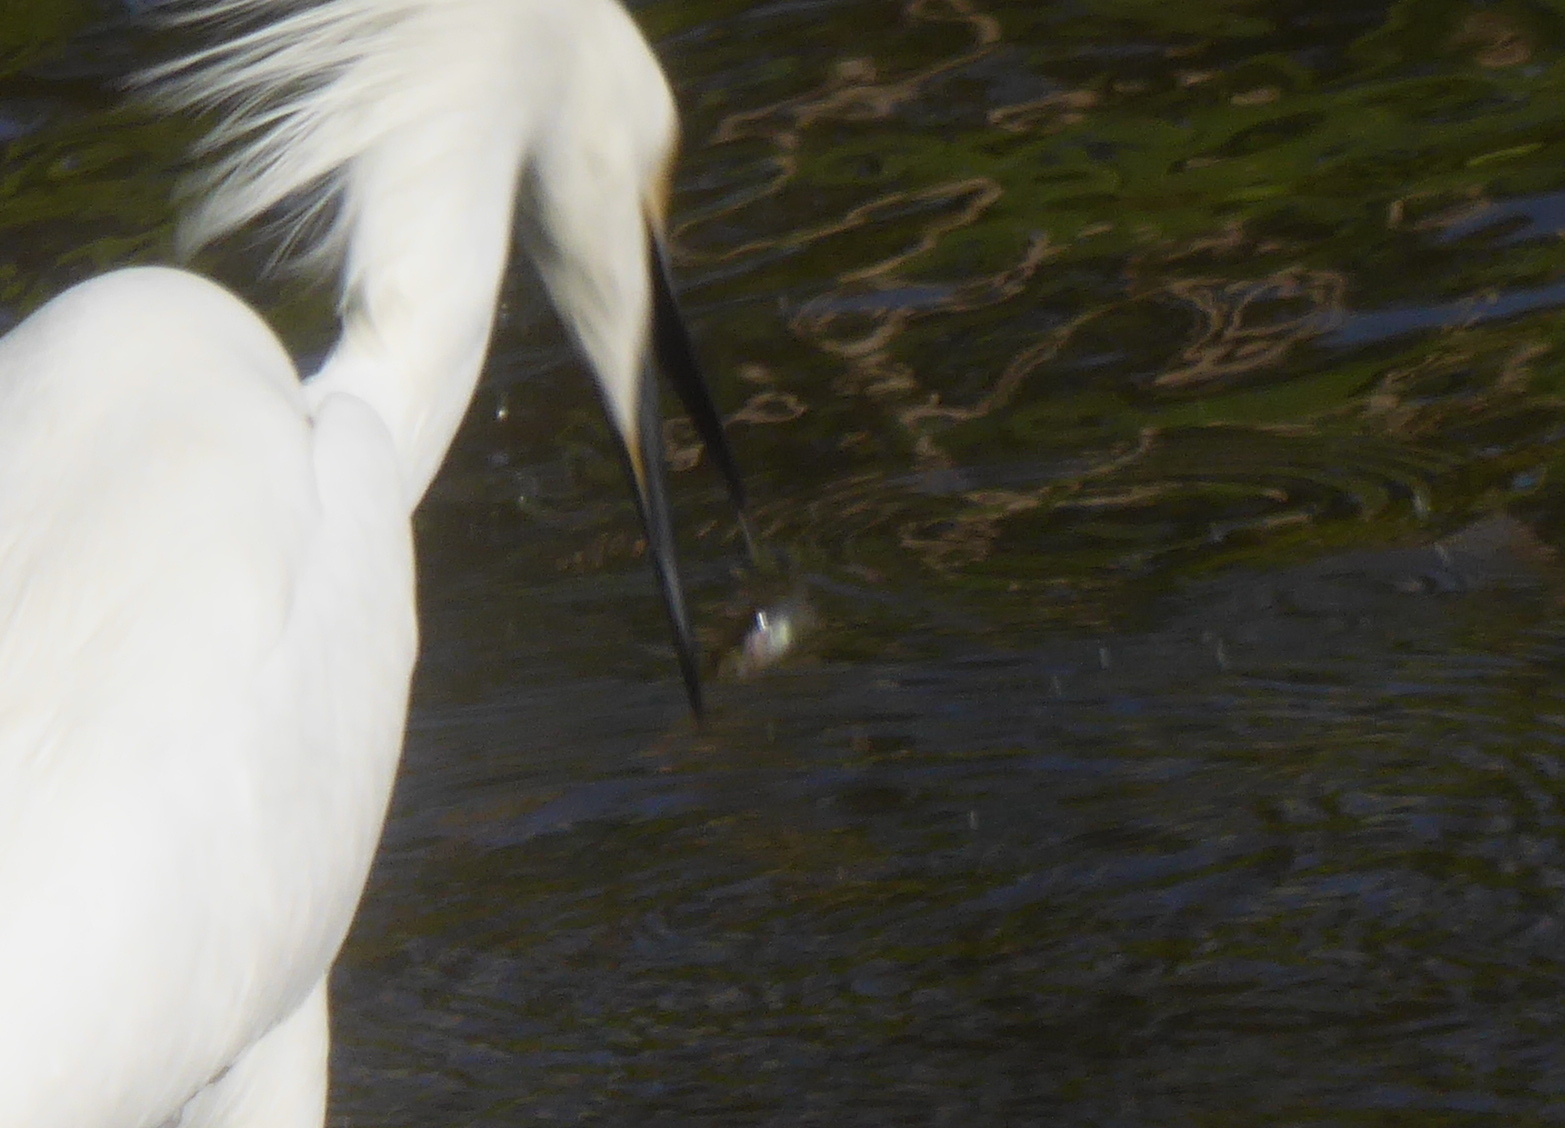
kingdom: Animalia
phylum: Chordata
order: Gasterosteiformes
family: Gasterosteidae
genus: Gasterosteus
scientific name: Gasterosteus aculeatus
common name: Three-spined stickleback
